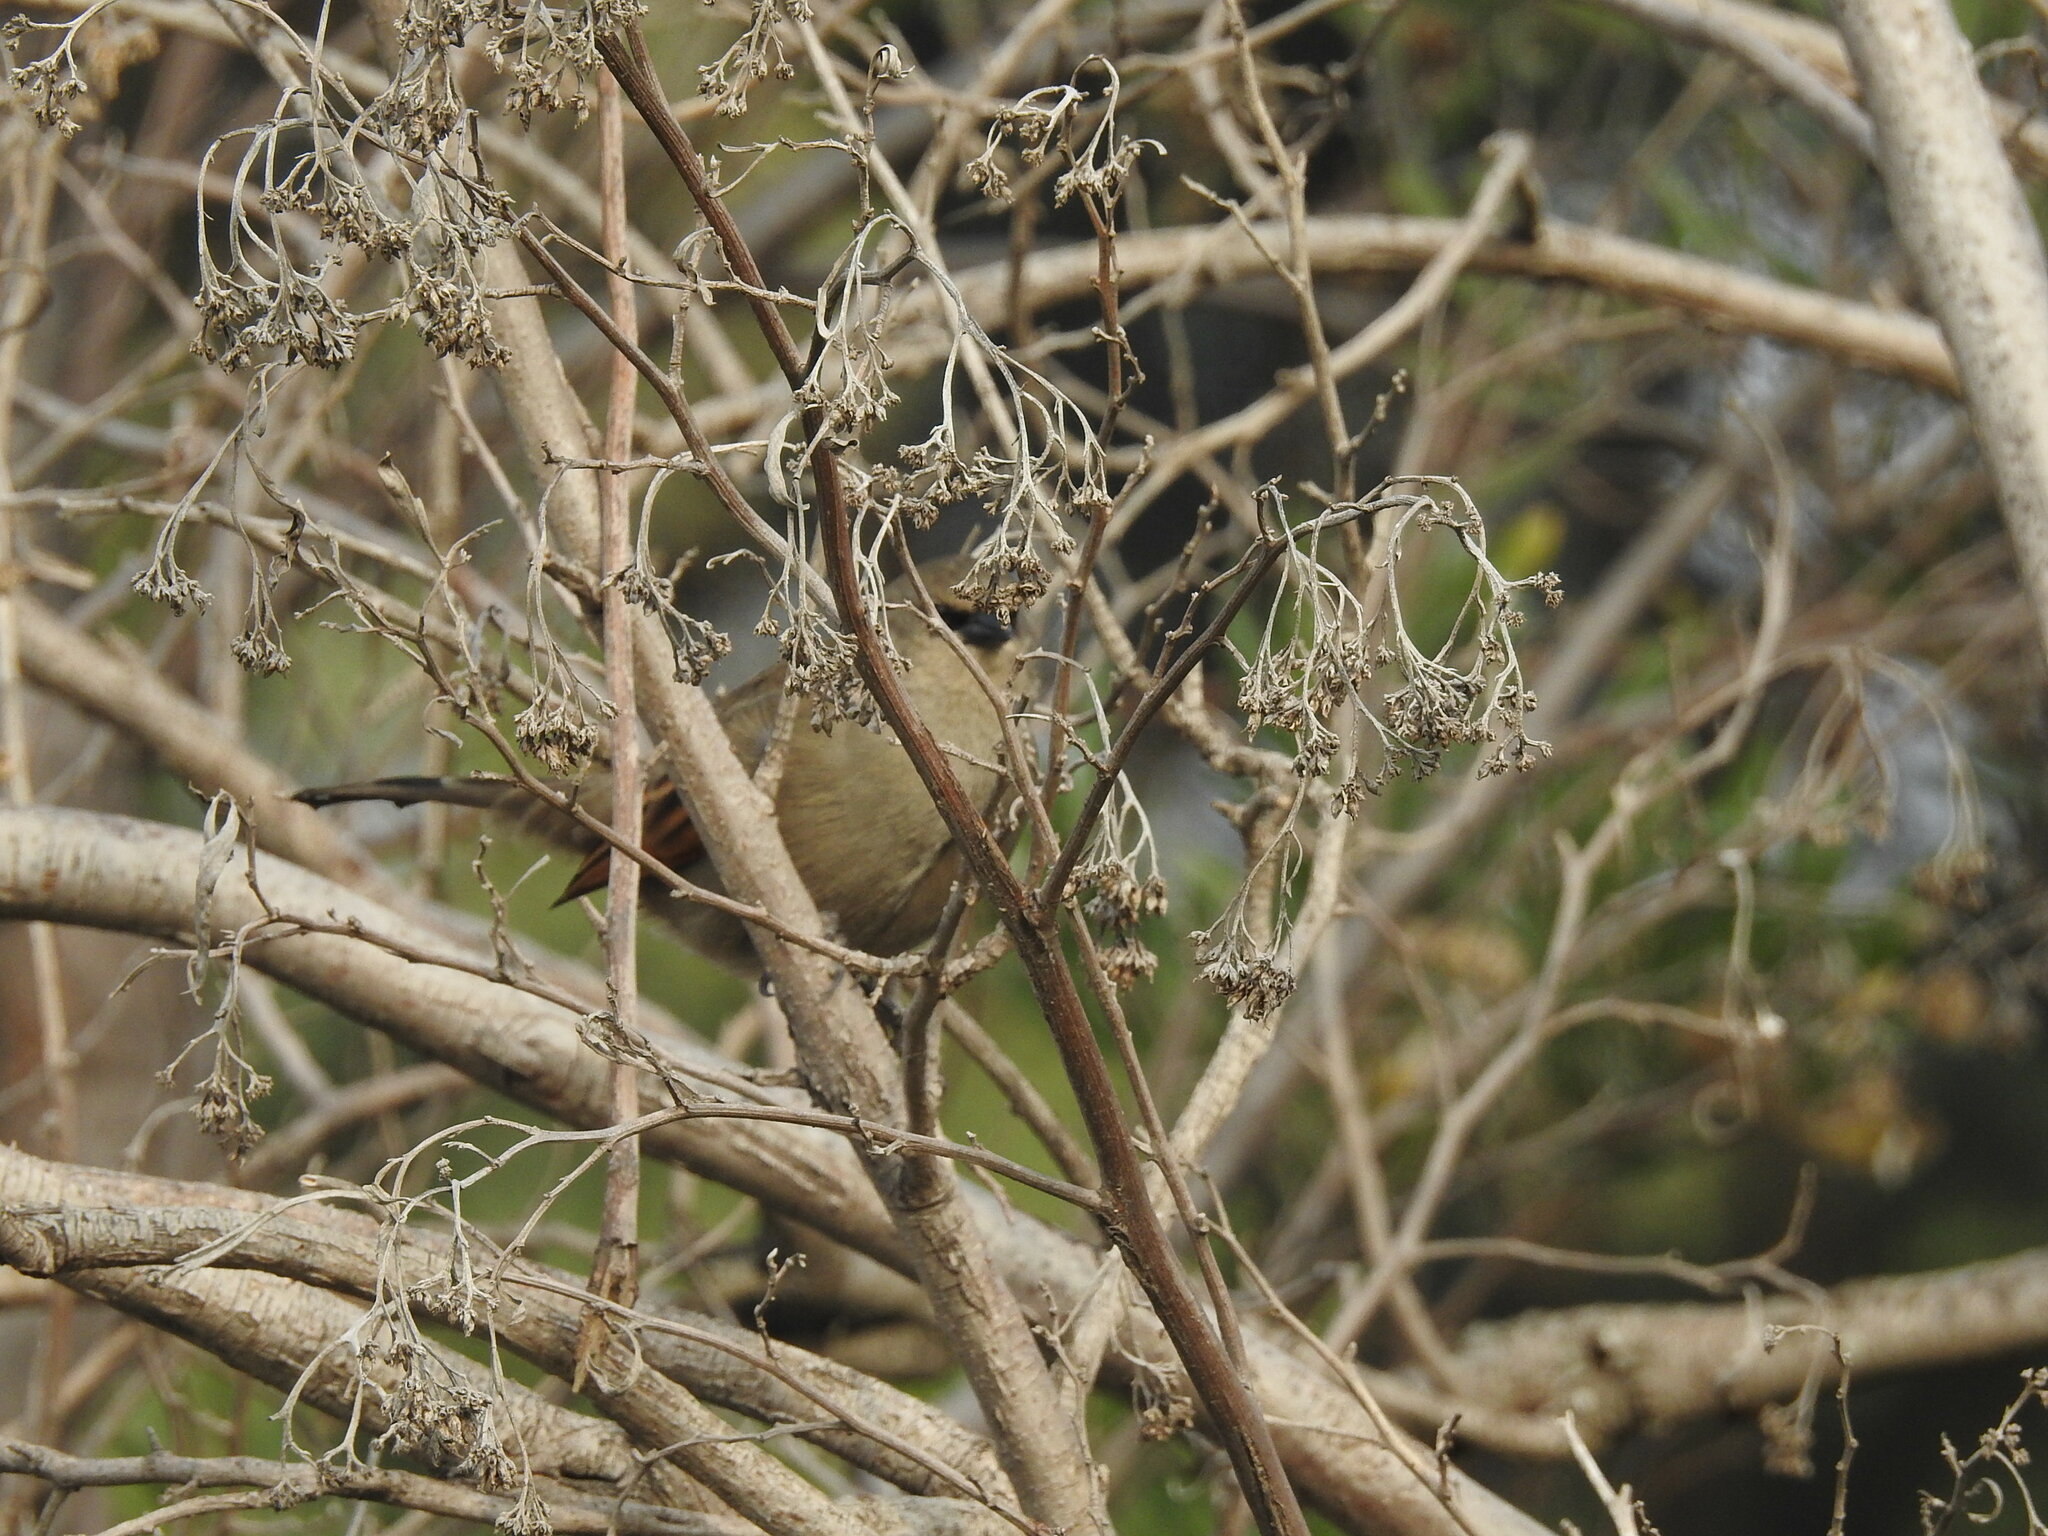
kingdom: Animalia
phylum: Chordata
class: Aves
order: Passeriformes
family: Icteridae
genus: Agelaioides
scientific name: Agelaioides badius
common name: Baywing
